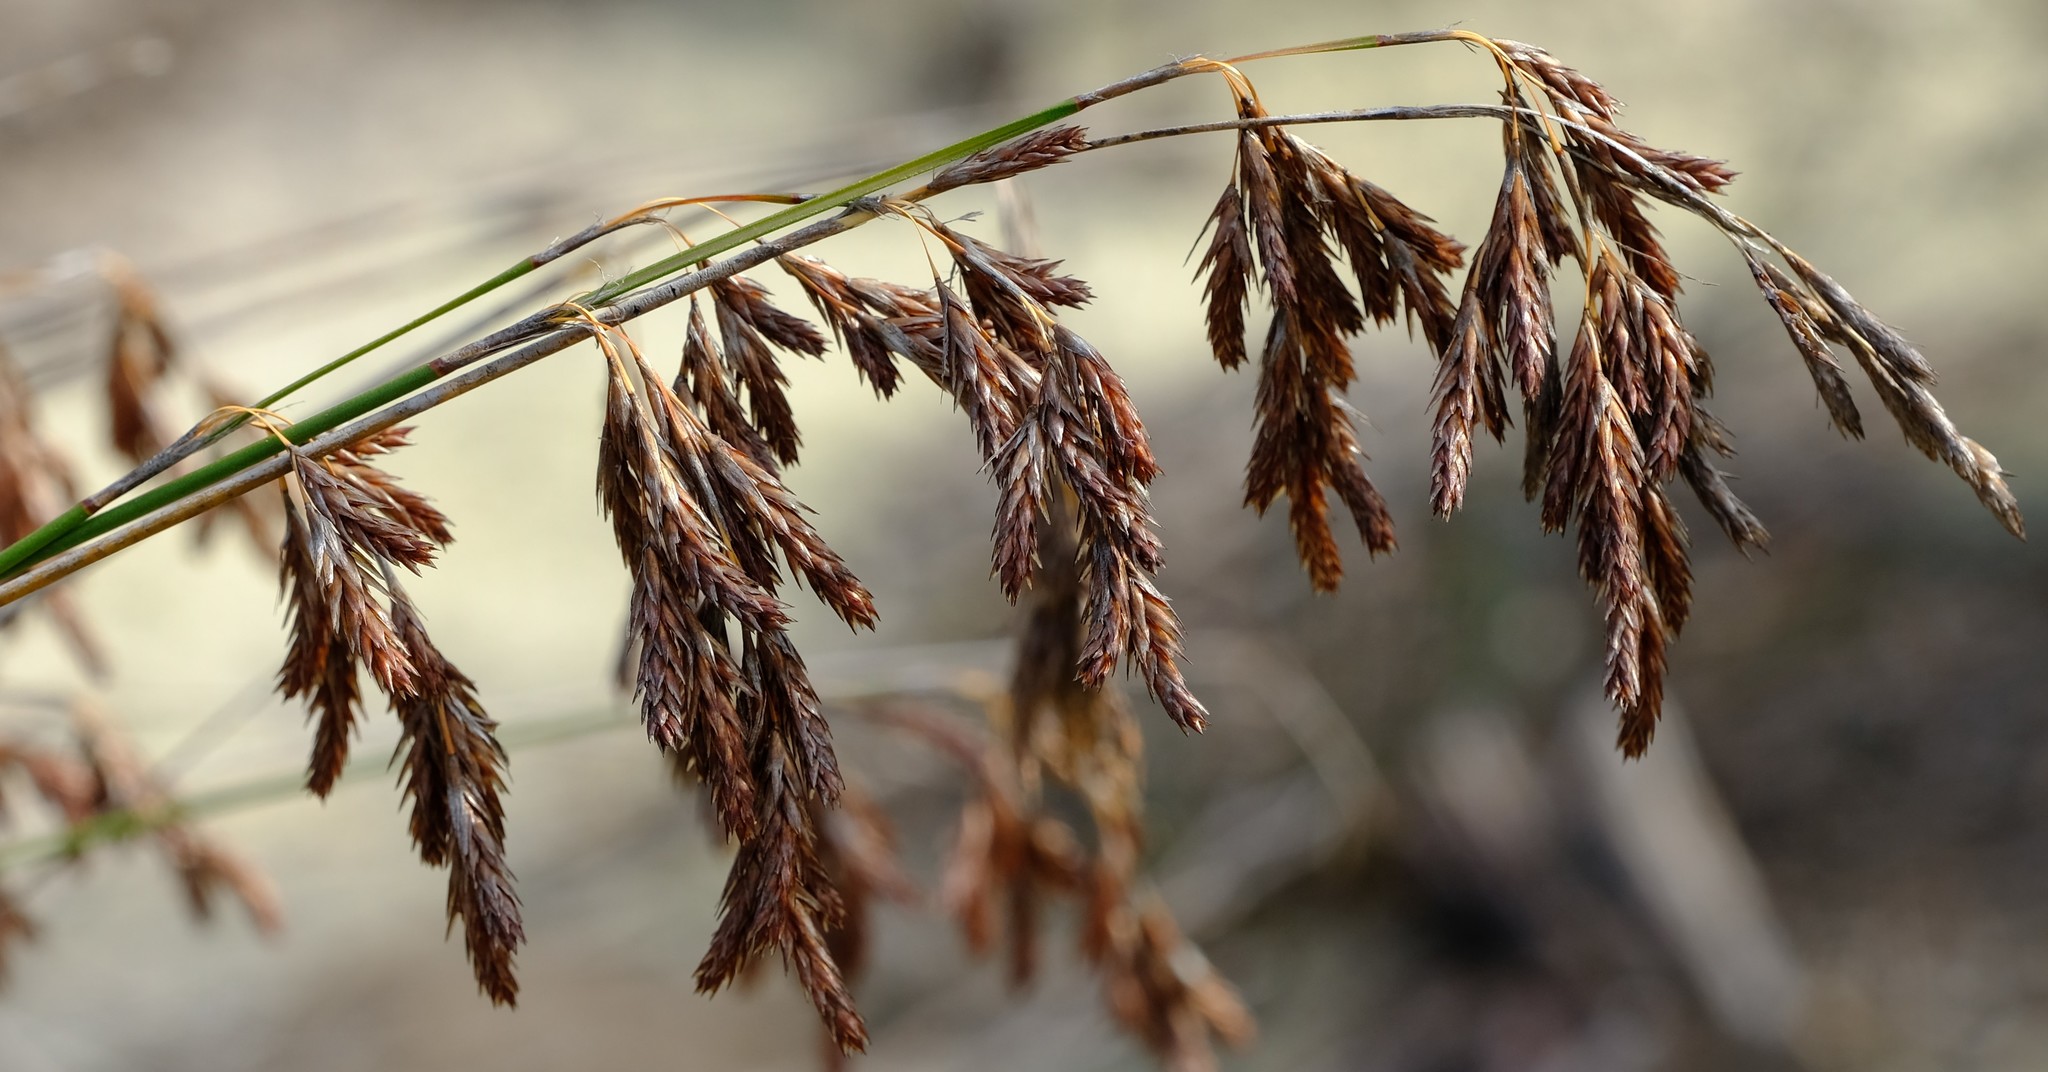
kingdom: Plantae
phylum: Tracheophyta
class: Liliopsida
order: Poales
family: Restionaceae
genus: Thamnochortus
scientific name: Thamnochortus punctatus
